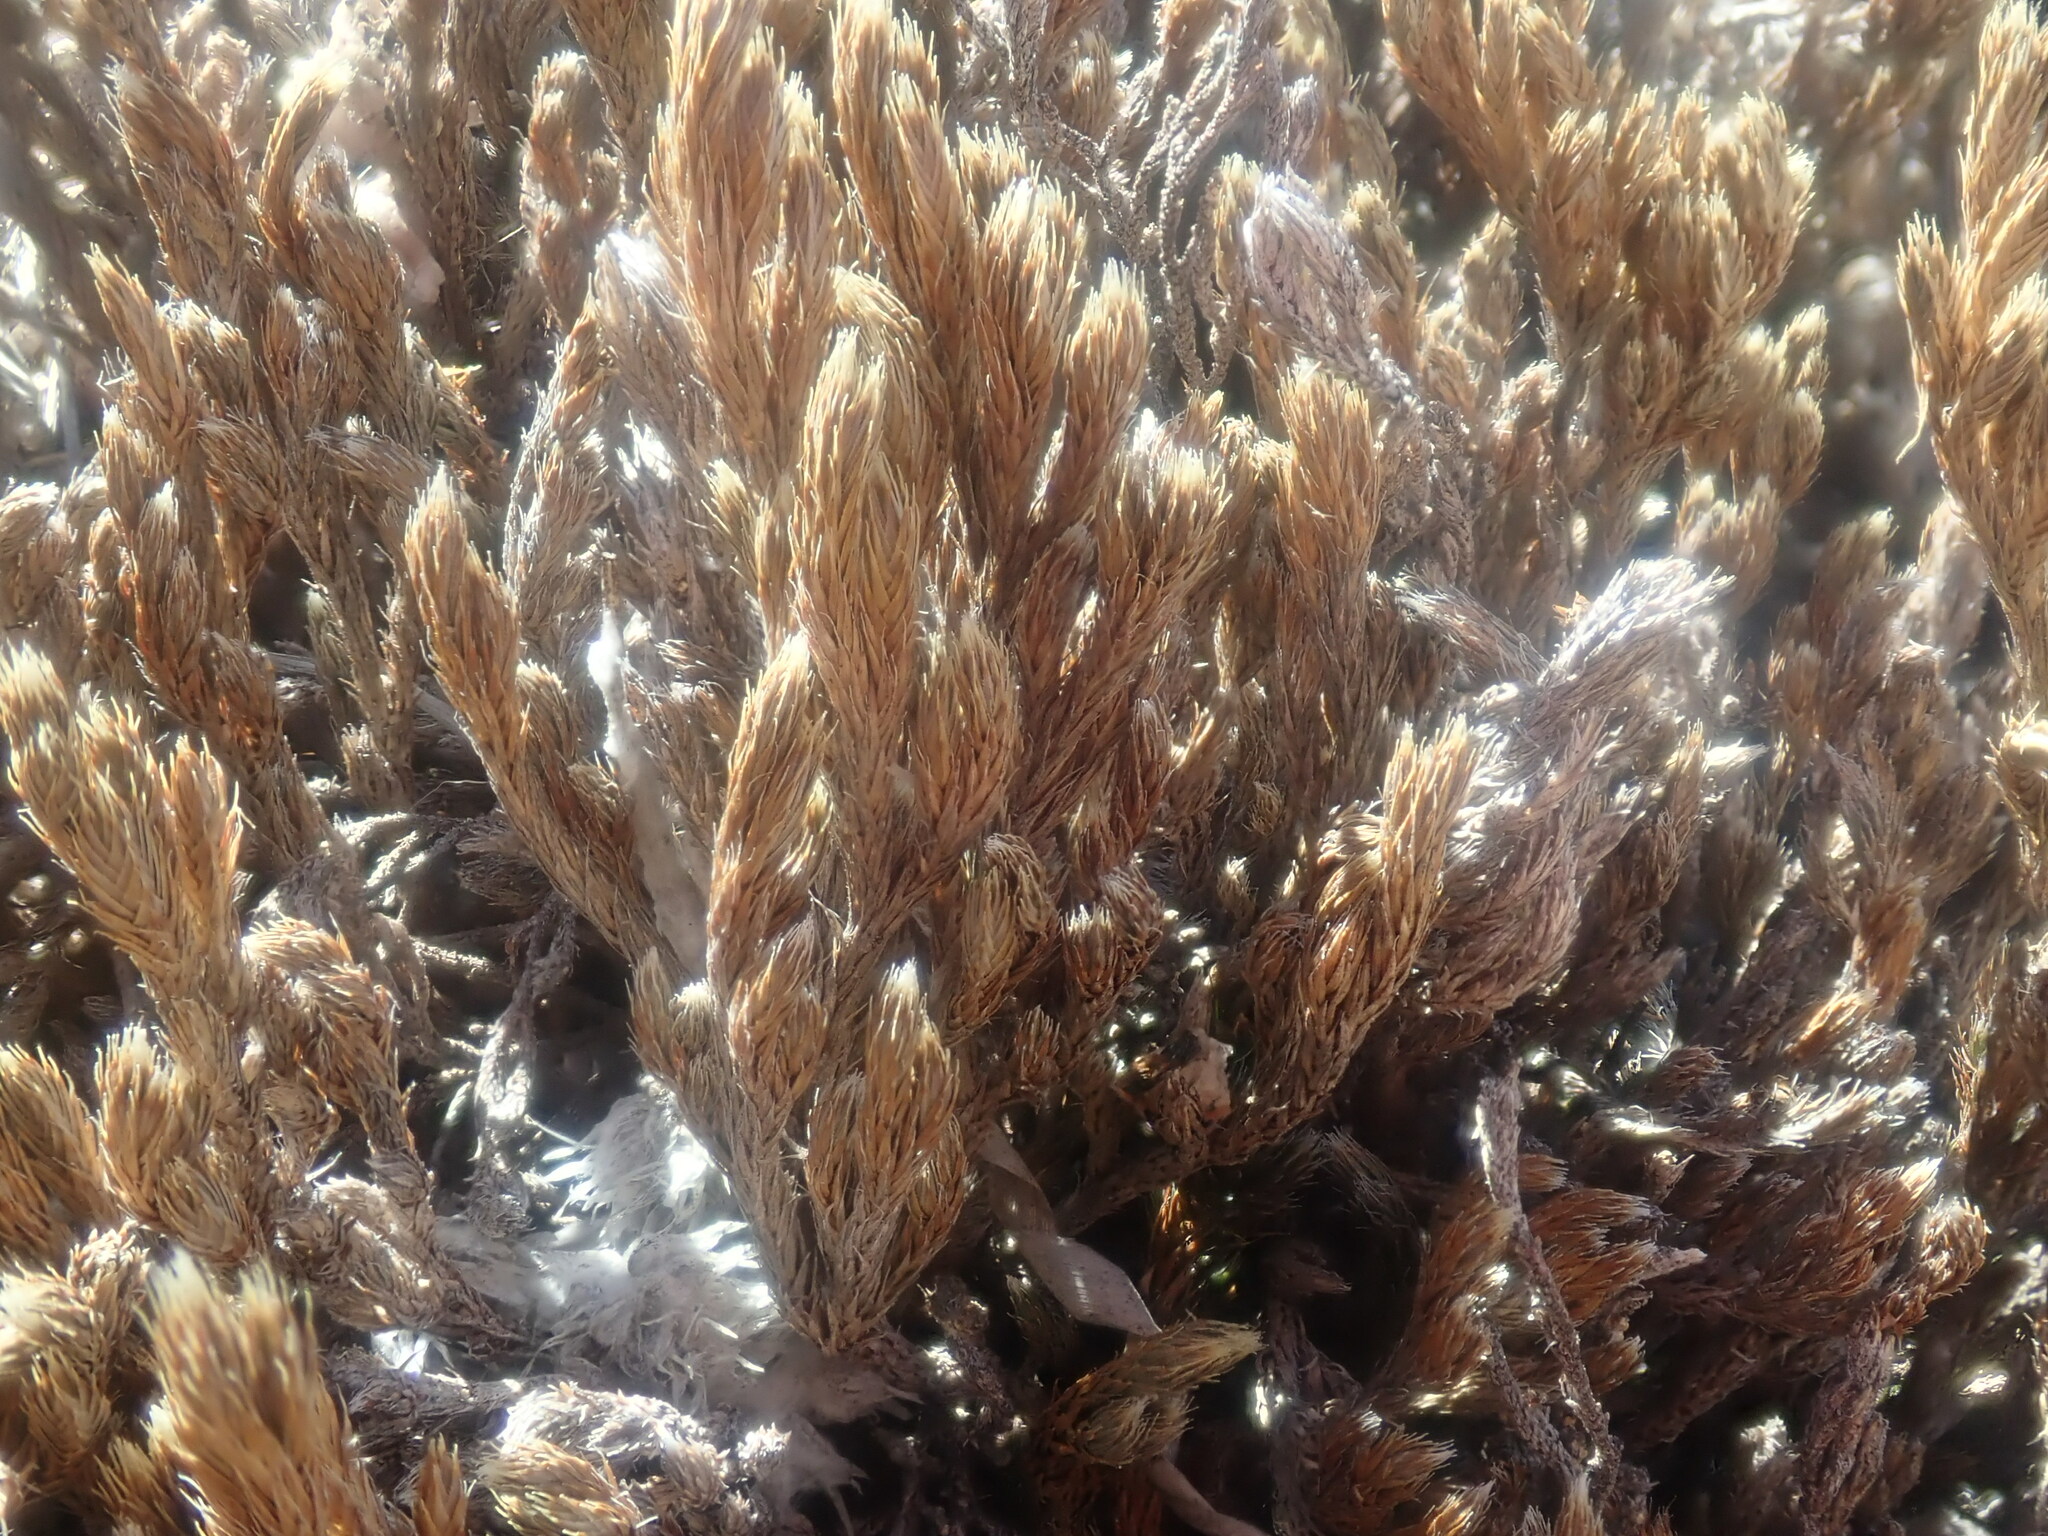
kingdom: Plantae
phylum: Tracheophyta
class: Lycopodiopsida
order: Selaginellales
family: Selaginellaceae
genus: Selaginella
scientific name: Selaginella rupincola
